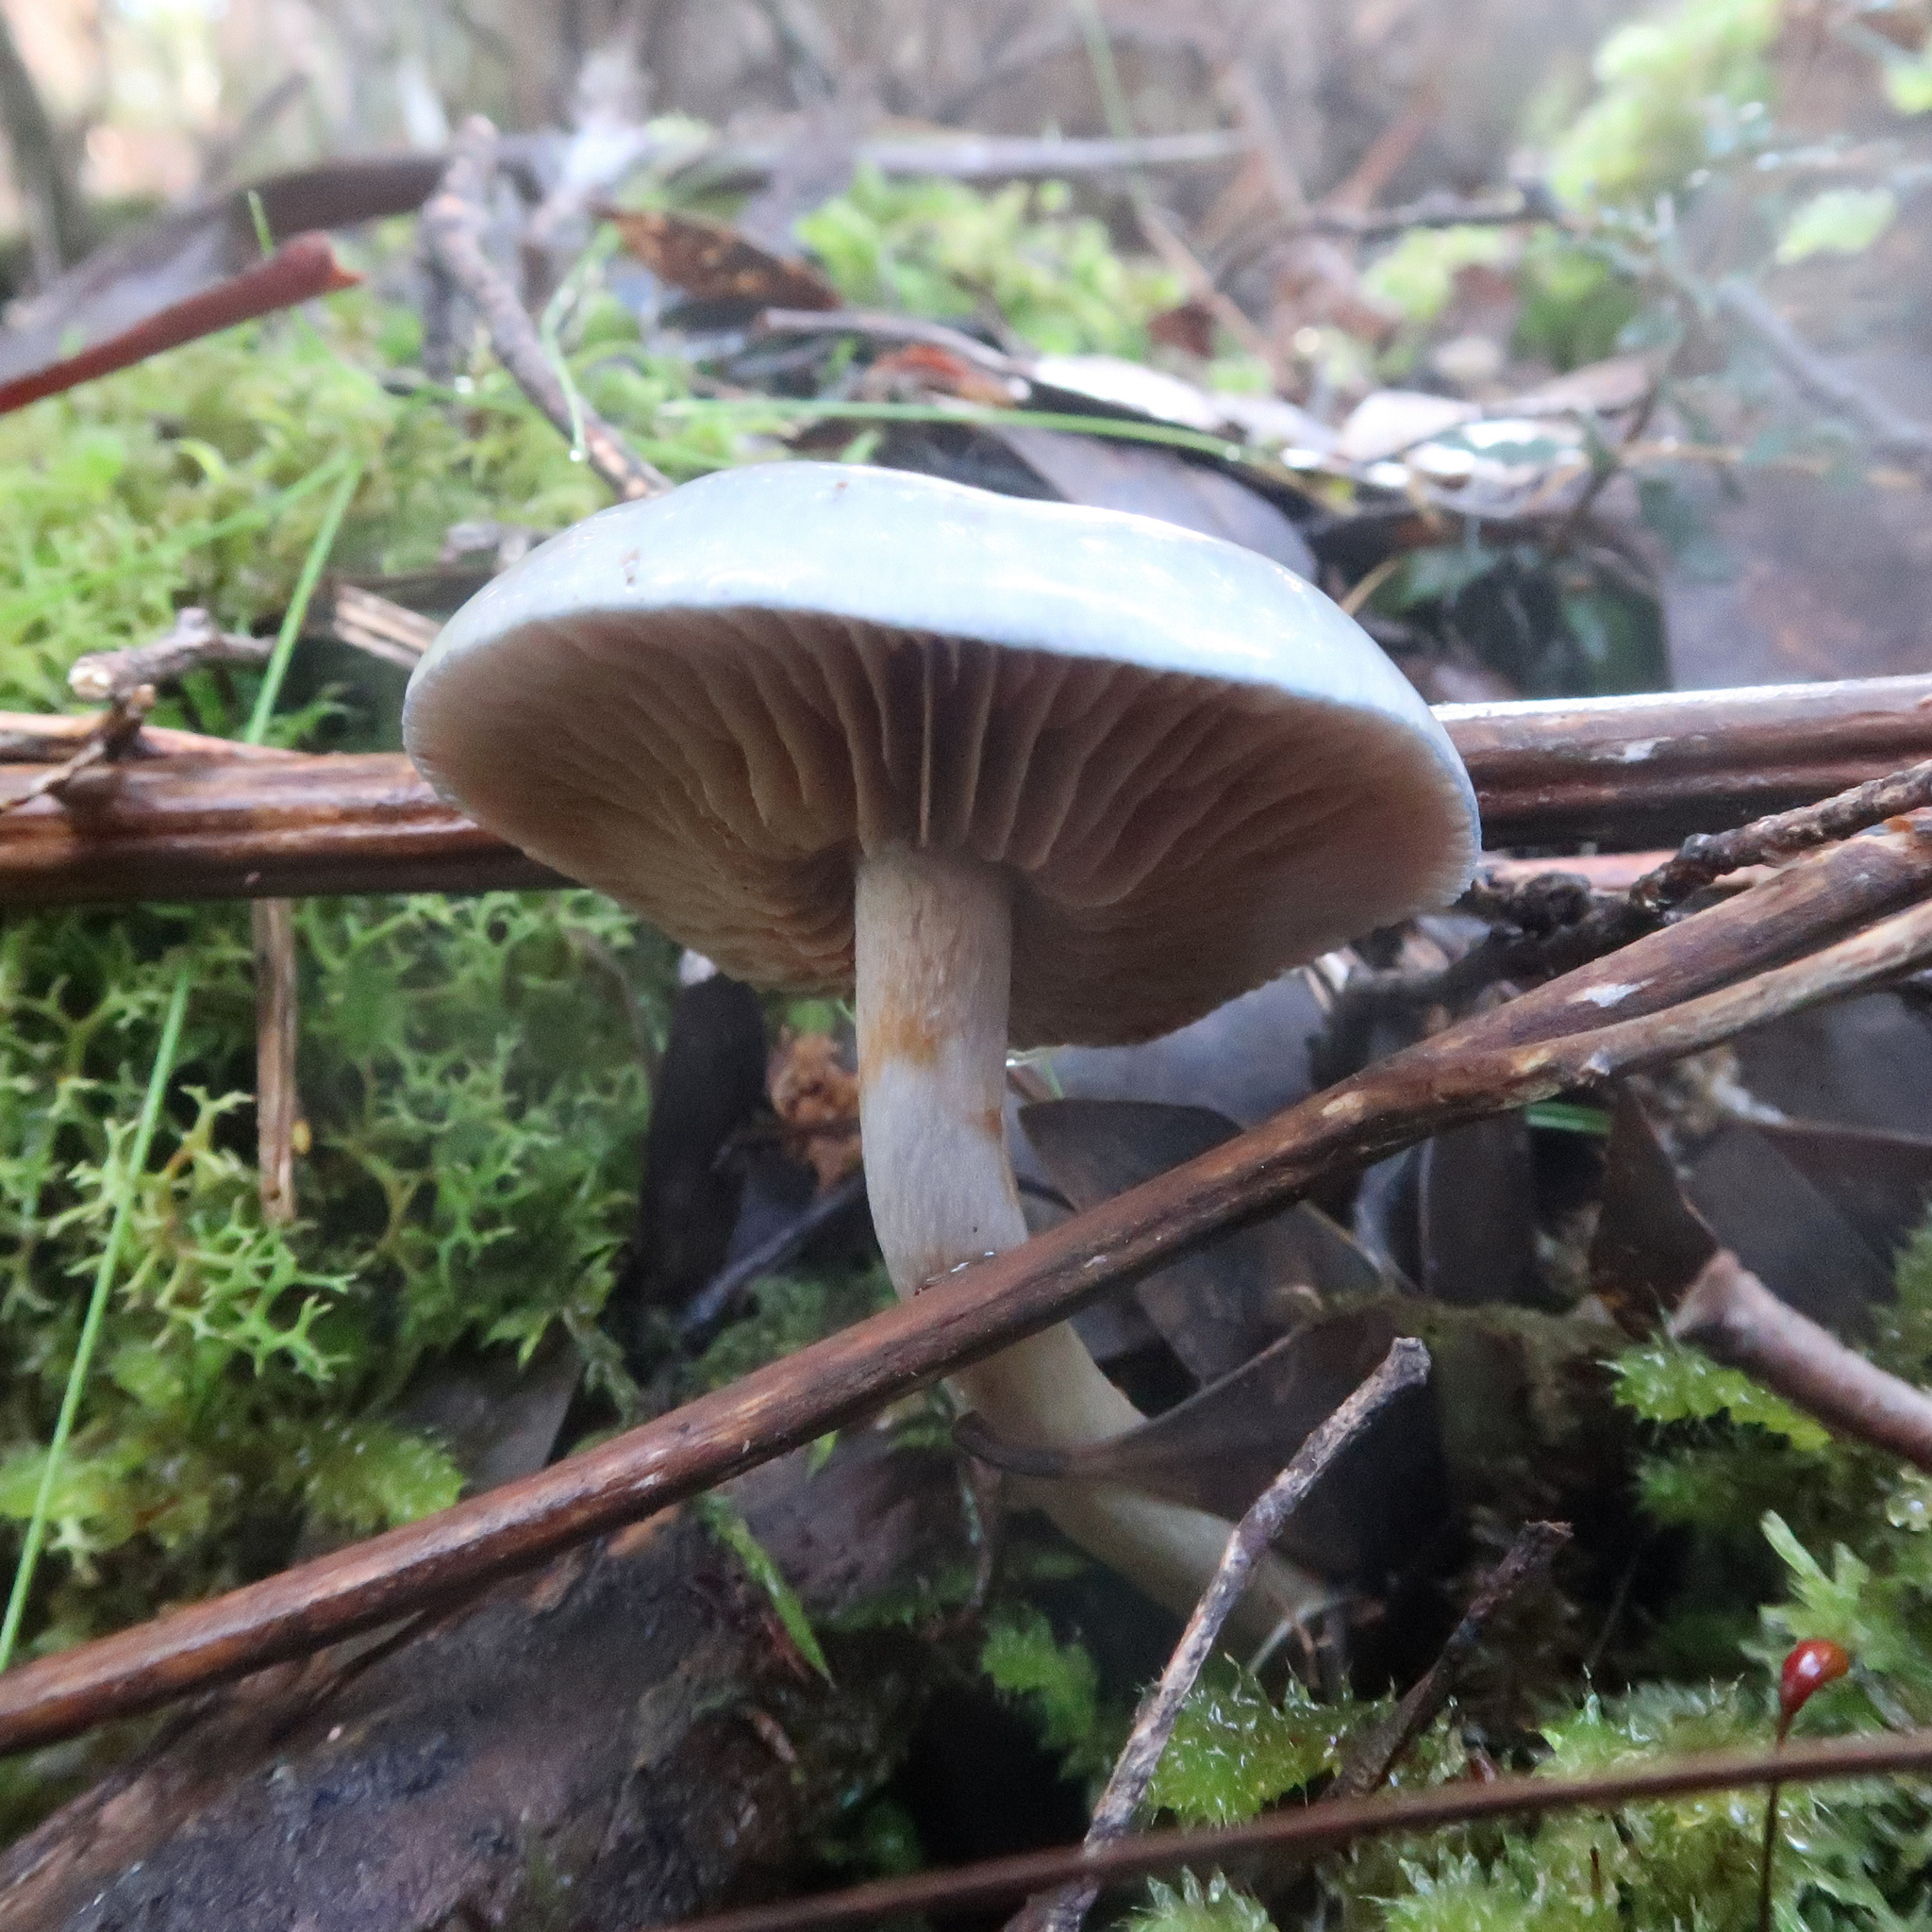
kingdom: Fungi
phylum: Basidiomycota
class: Agaricomycetes
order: Agaricales
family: Cortinariaceae
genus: Cortinarius
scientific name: Cortinarius rotundisporus
